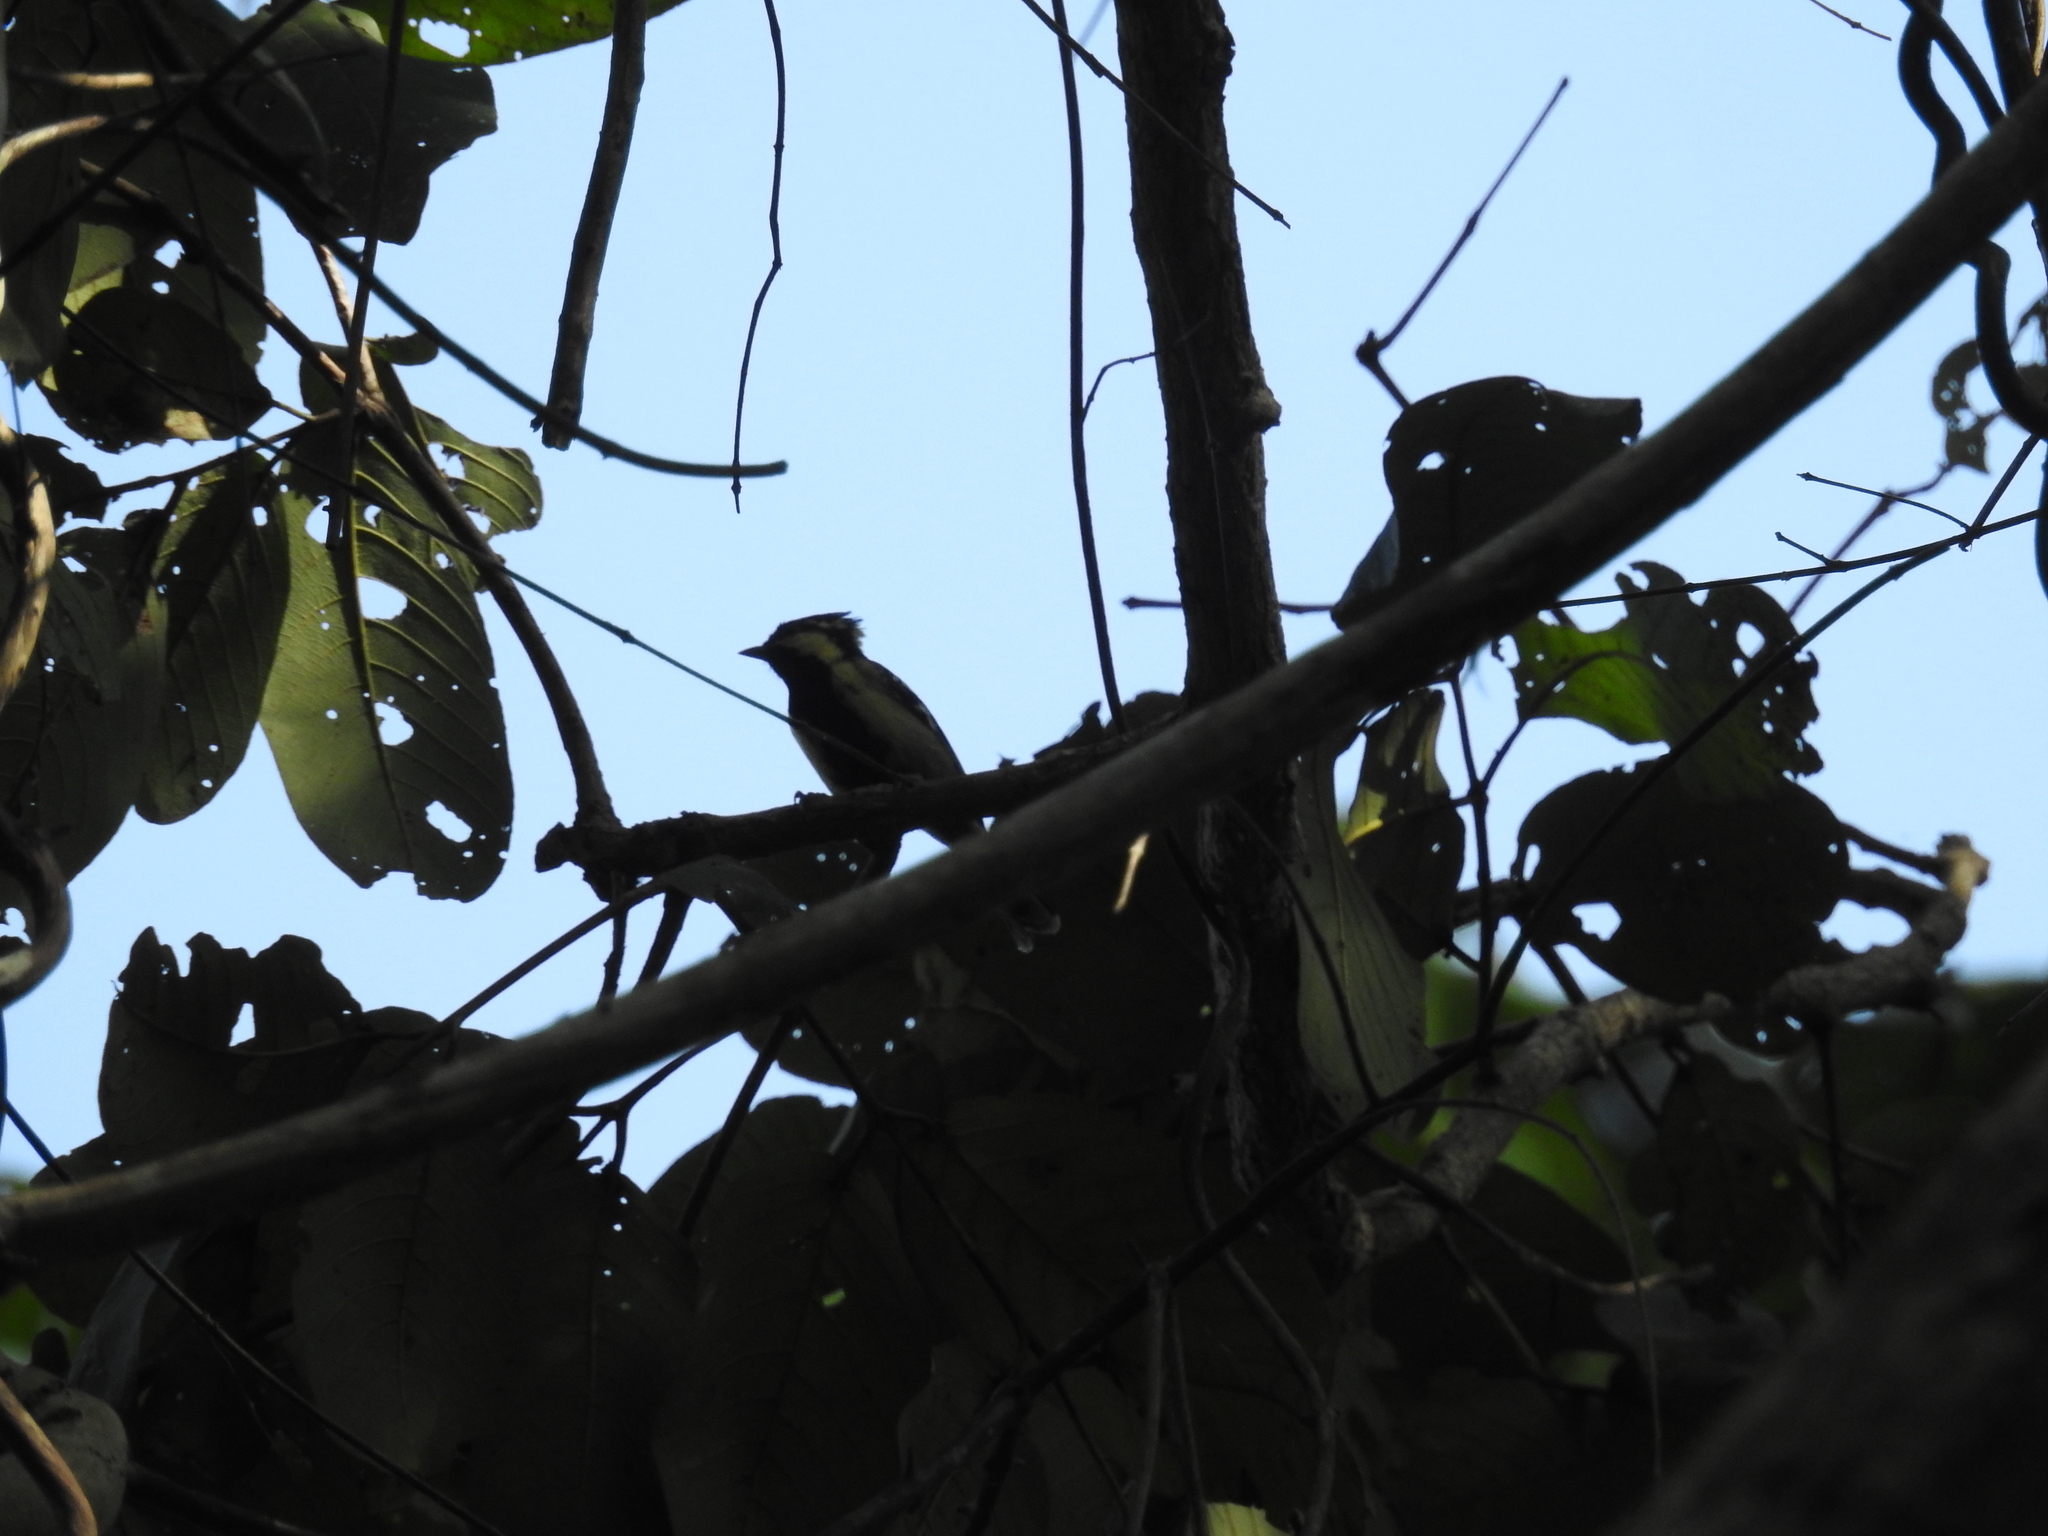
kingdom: Animalia
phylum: Chordata
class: Aves
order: Passeriformes
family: Paridae
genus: Parus
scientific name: Parus aplonotus
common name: Indian black-lored tit
